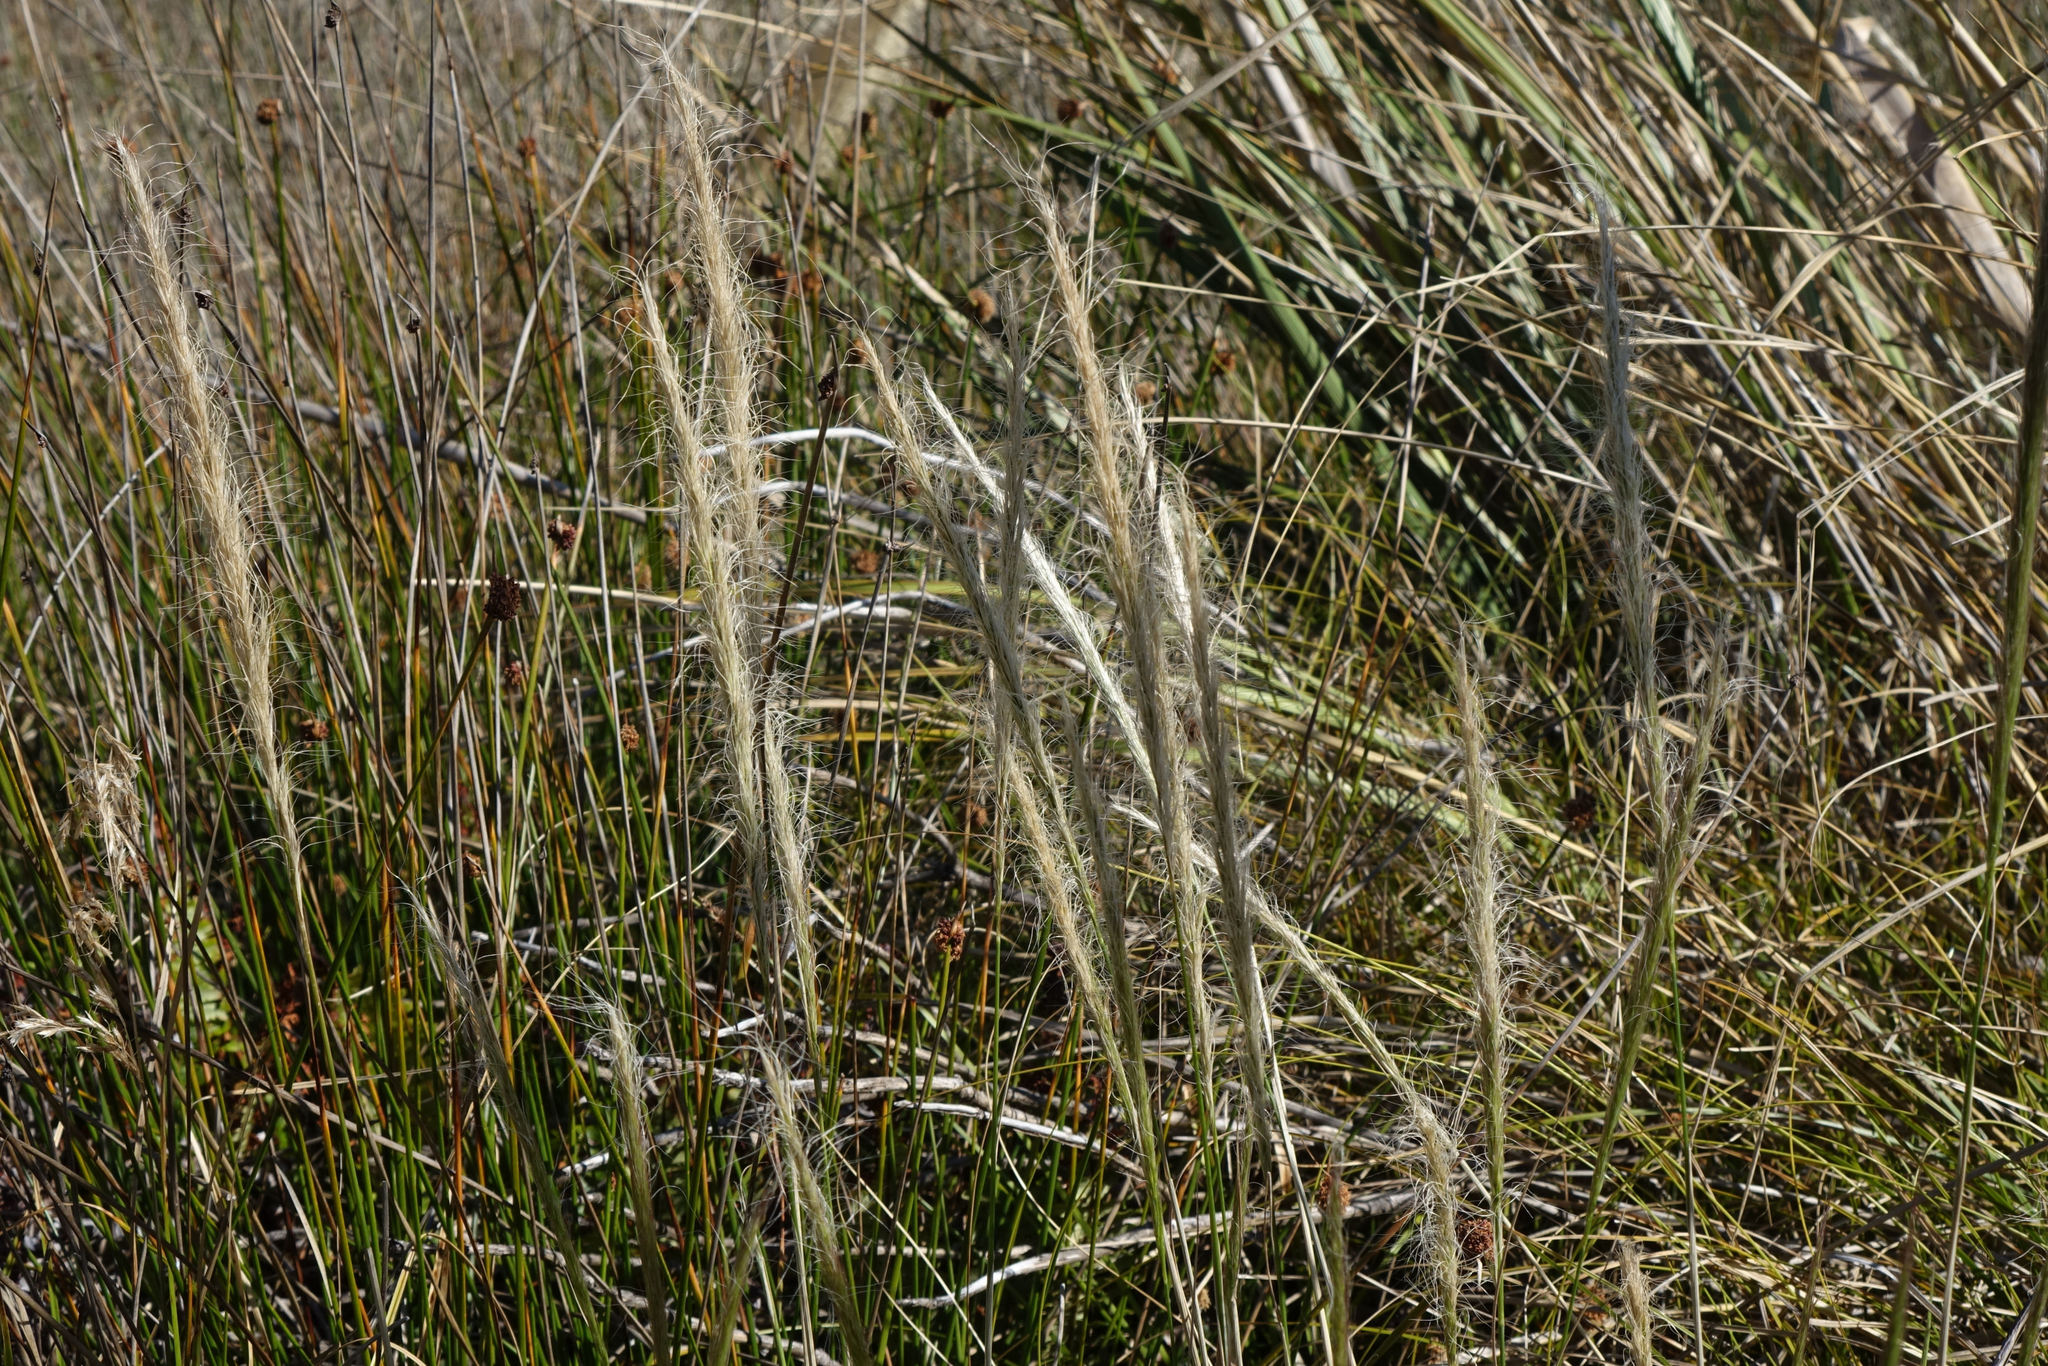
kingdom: Plantae
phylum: Tracheophyta
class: Liliopsida
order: Poales
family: Poaceae
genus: Dichelachne
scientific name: Dichelachne crinita
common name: Clovenfoot plumegrass
